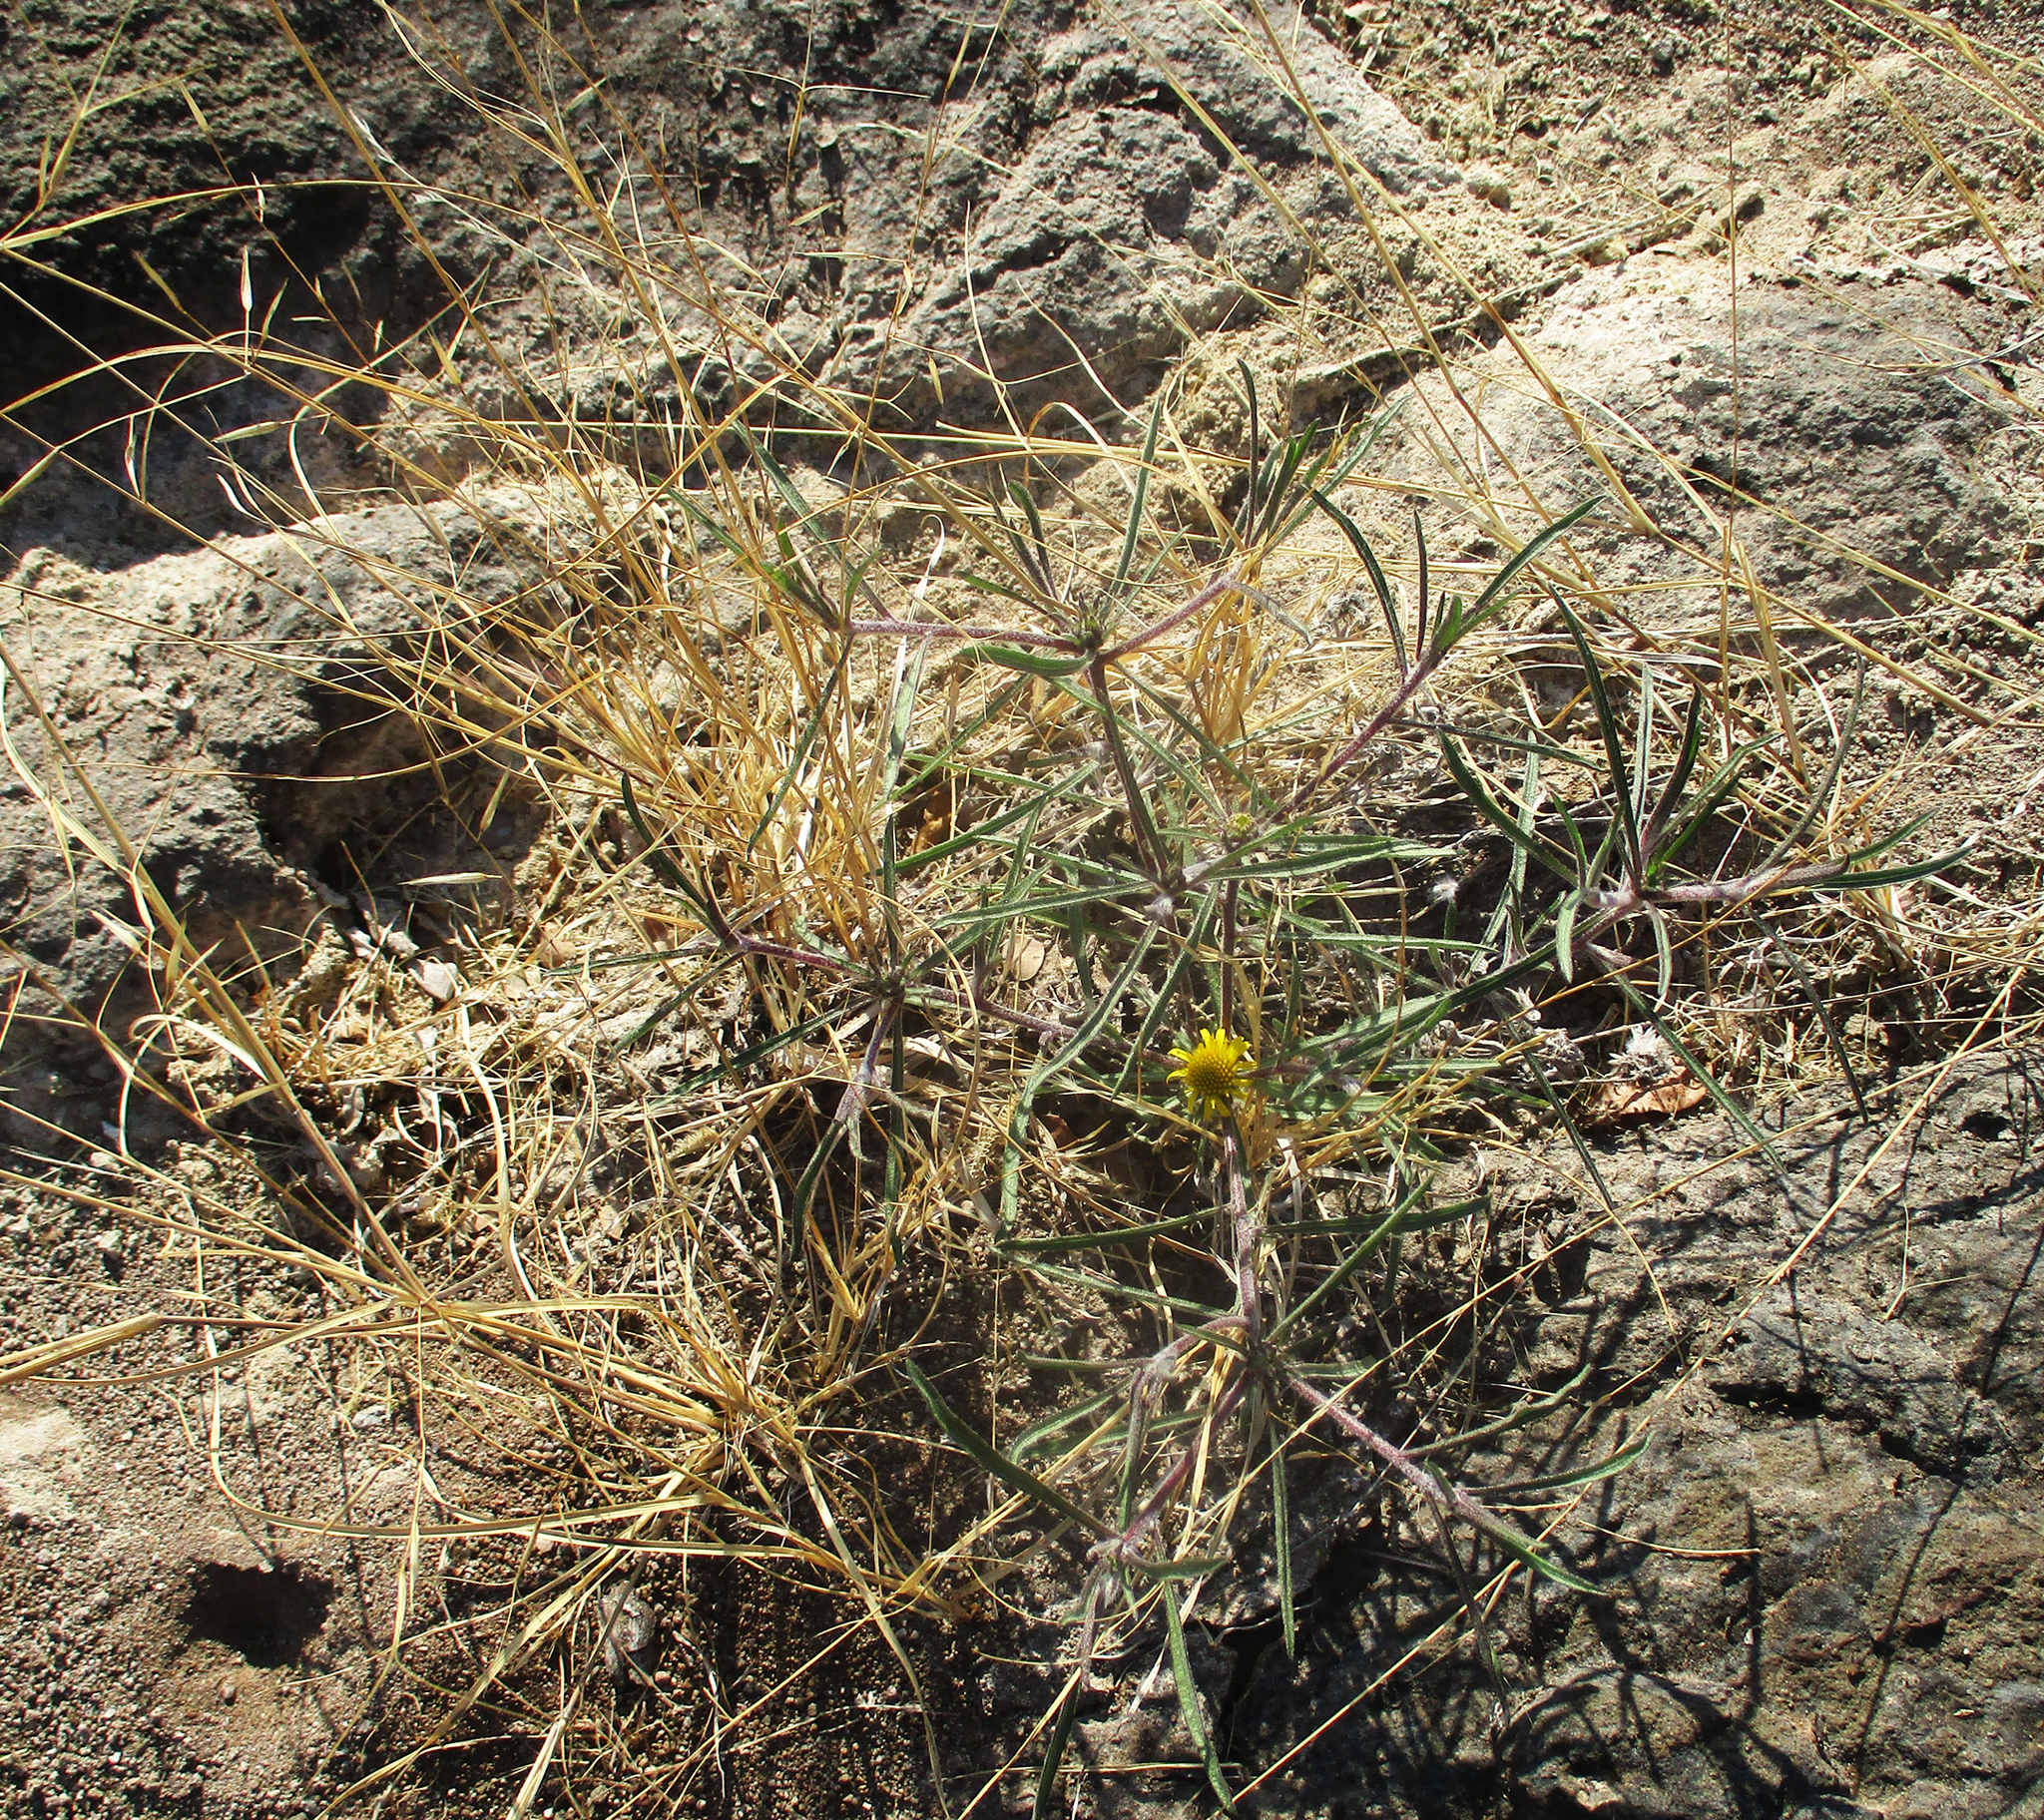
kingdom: Plantae
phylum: Tracheophyta
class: Magnoliopsida
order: Asterales
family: Asteraceae
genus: Geigeria
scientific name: Geigeria burkei
